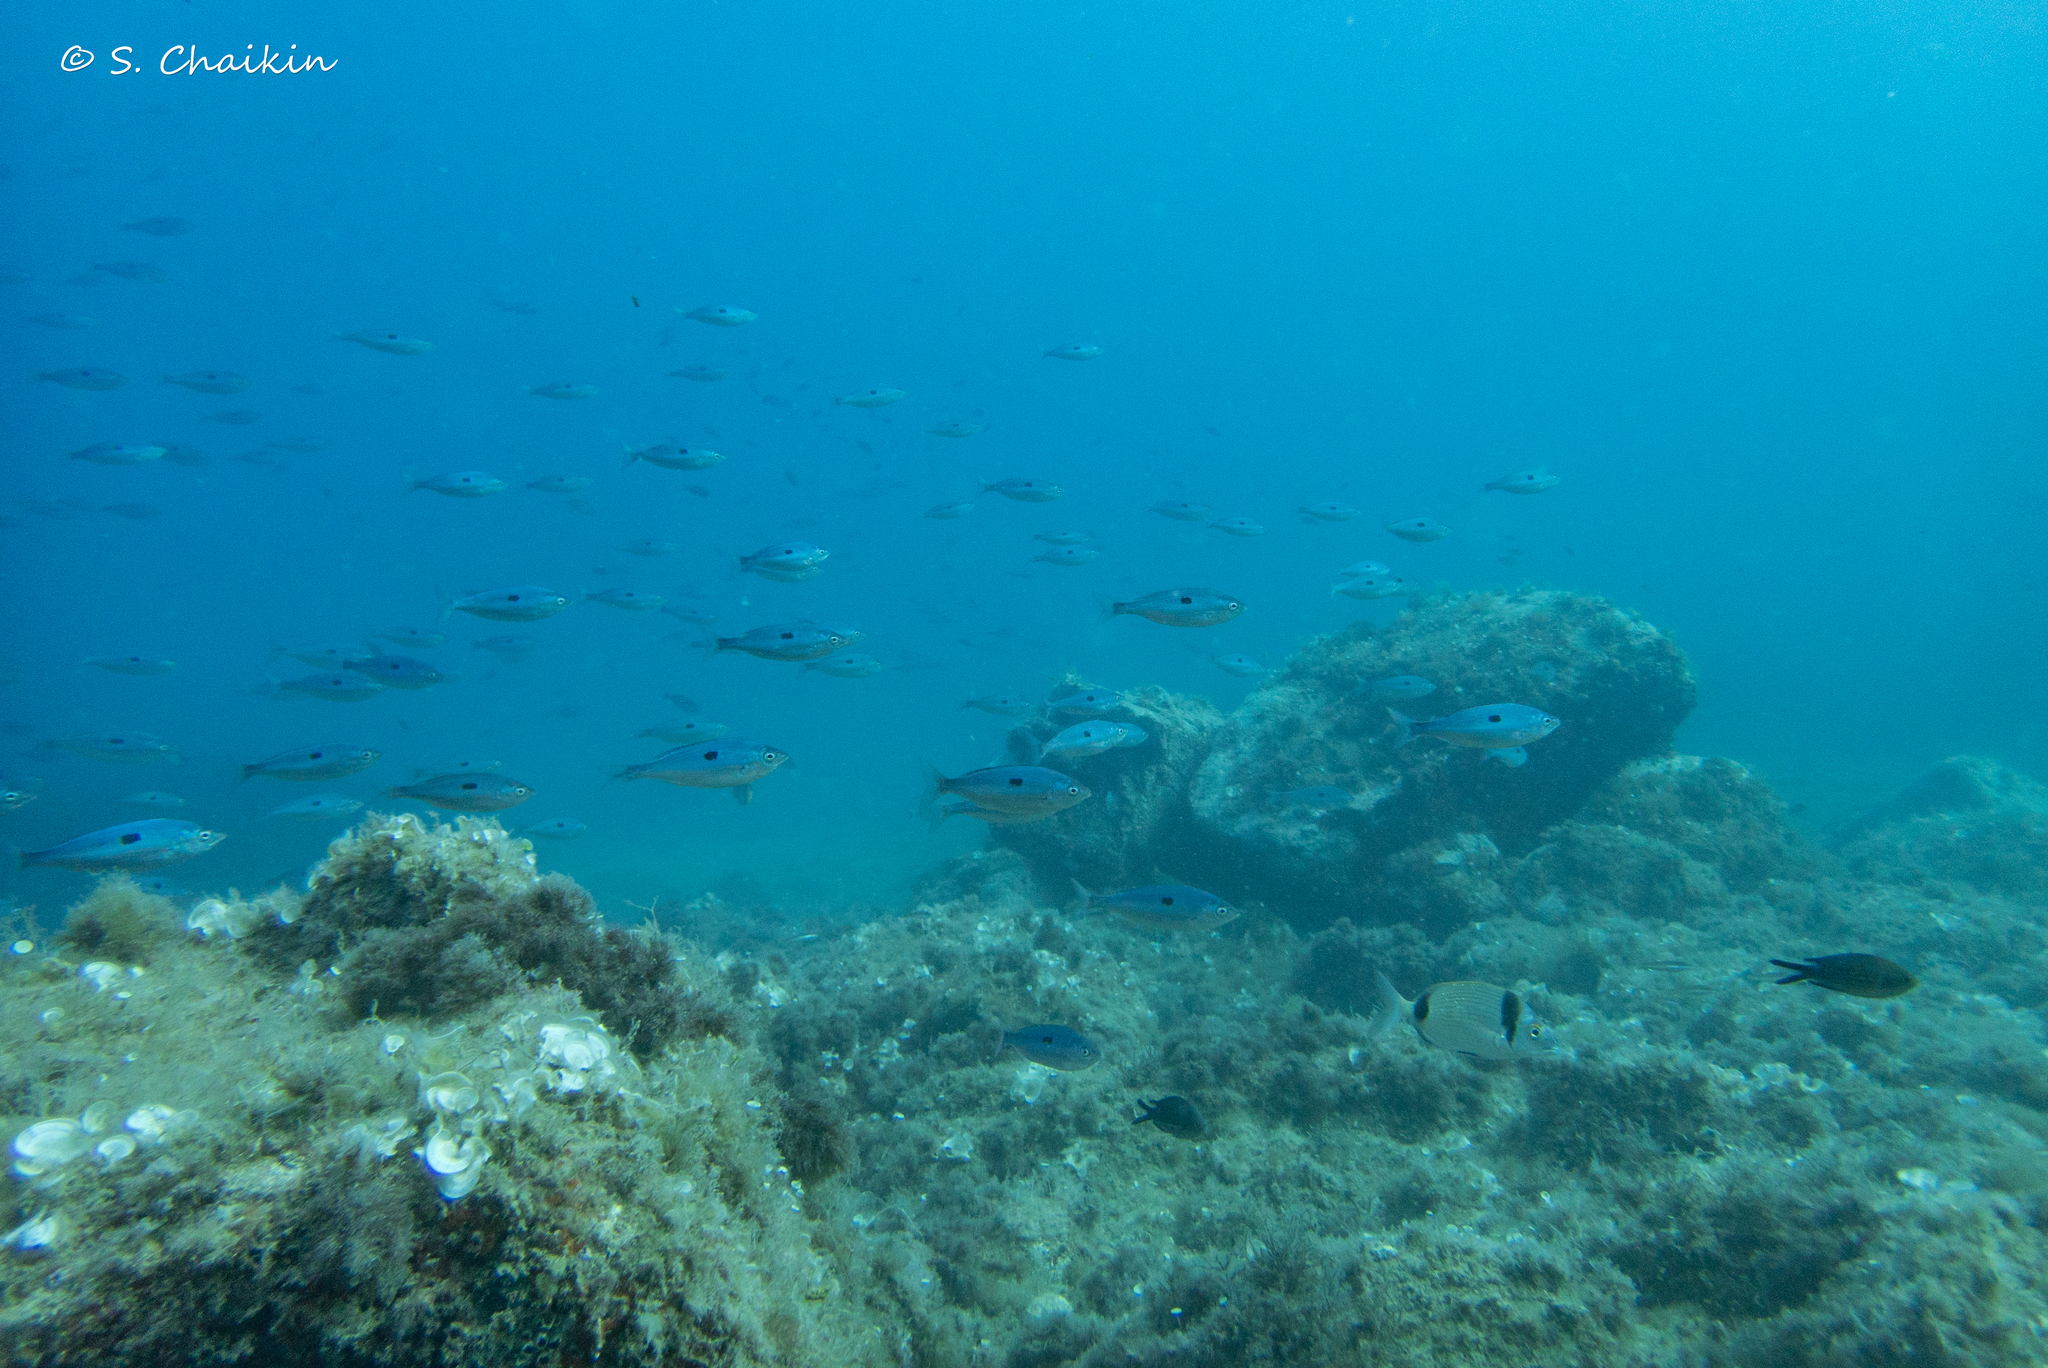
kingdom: Animalia
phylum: Chordata
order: Perciformes
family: Sparidae
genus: Spicara
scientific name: Spicara maena
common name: Blotched picarel
